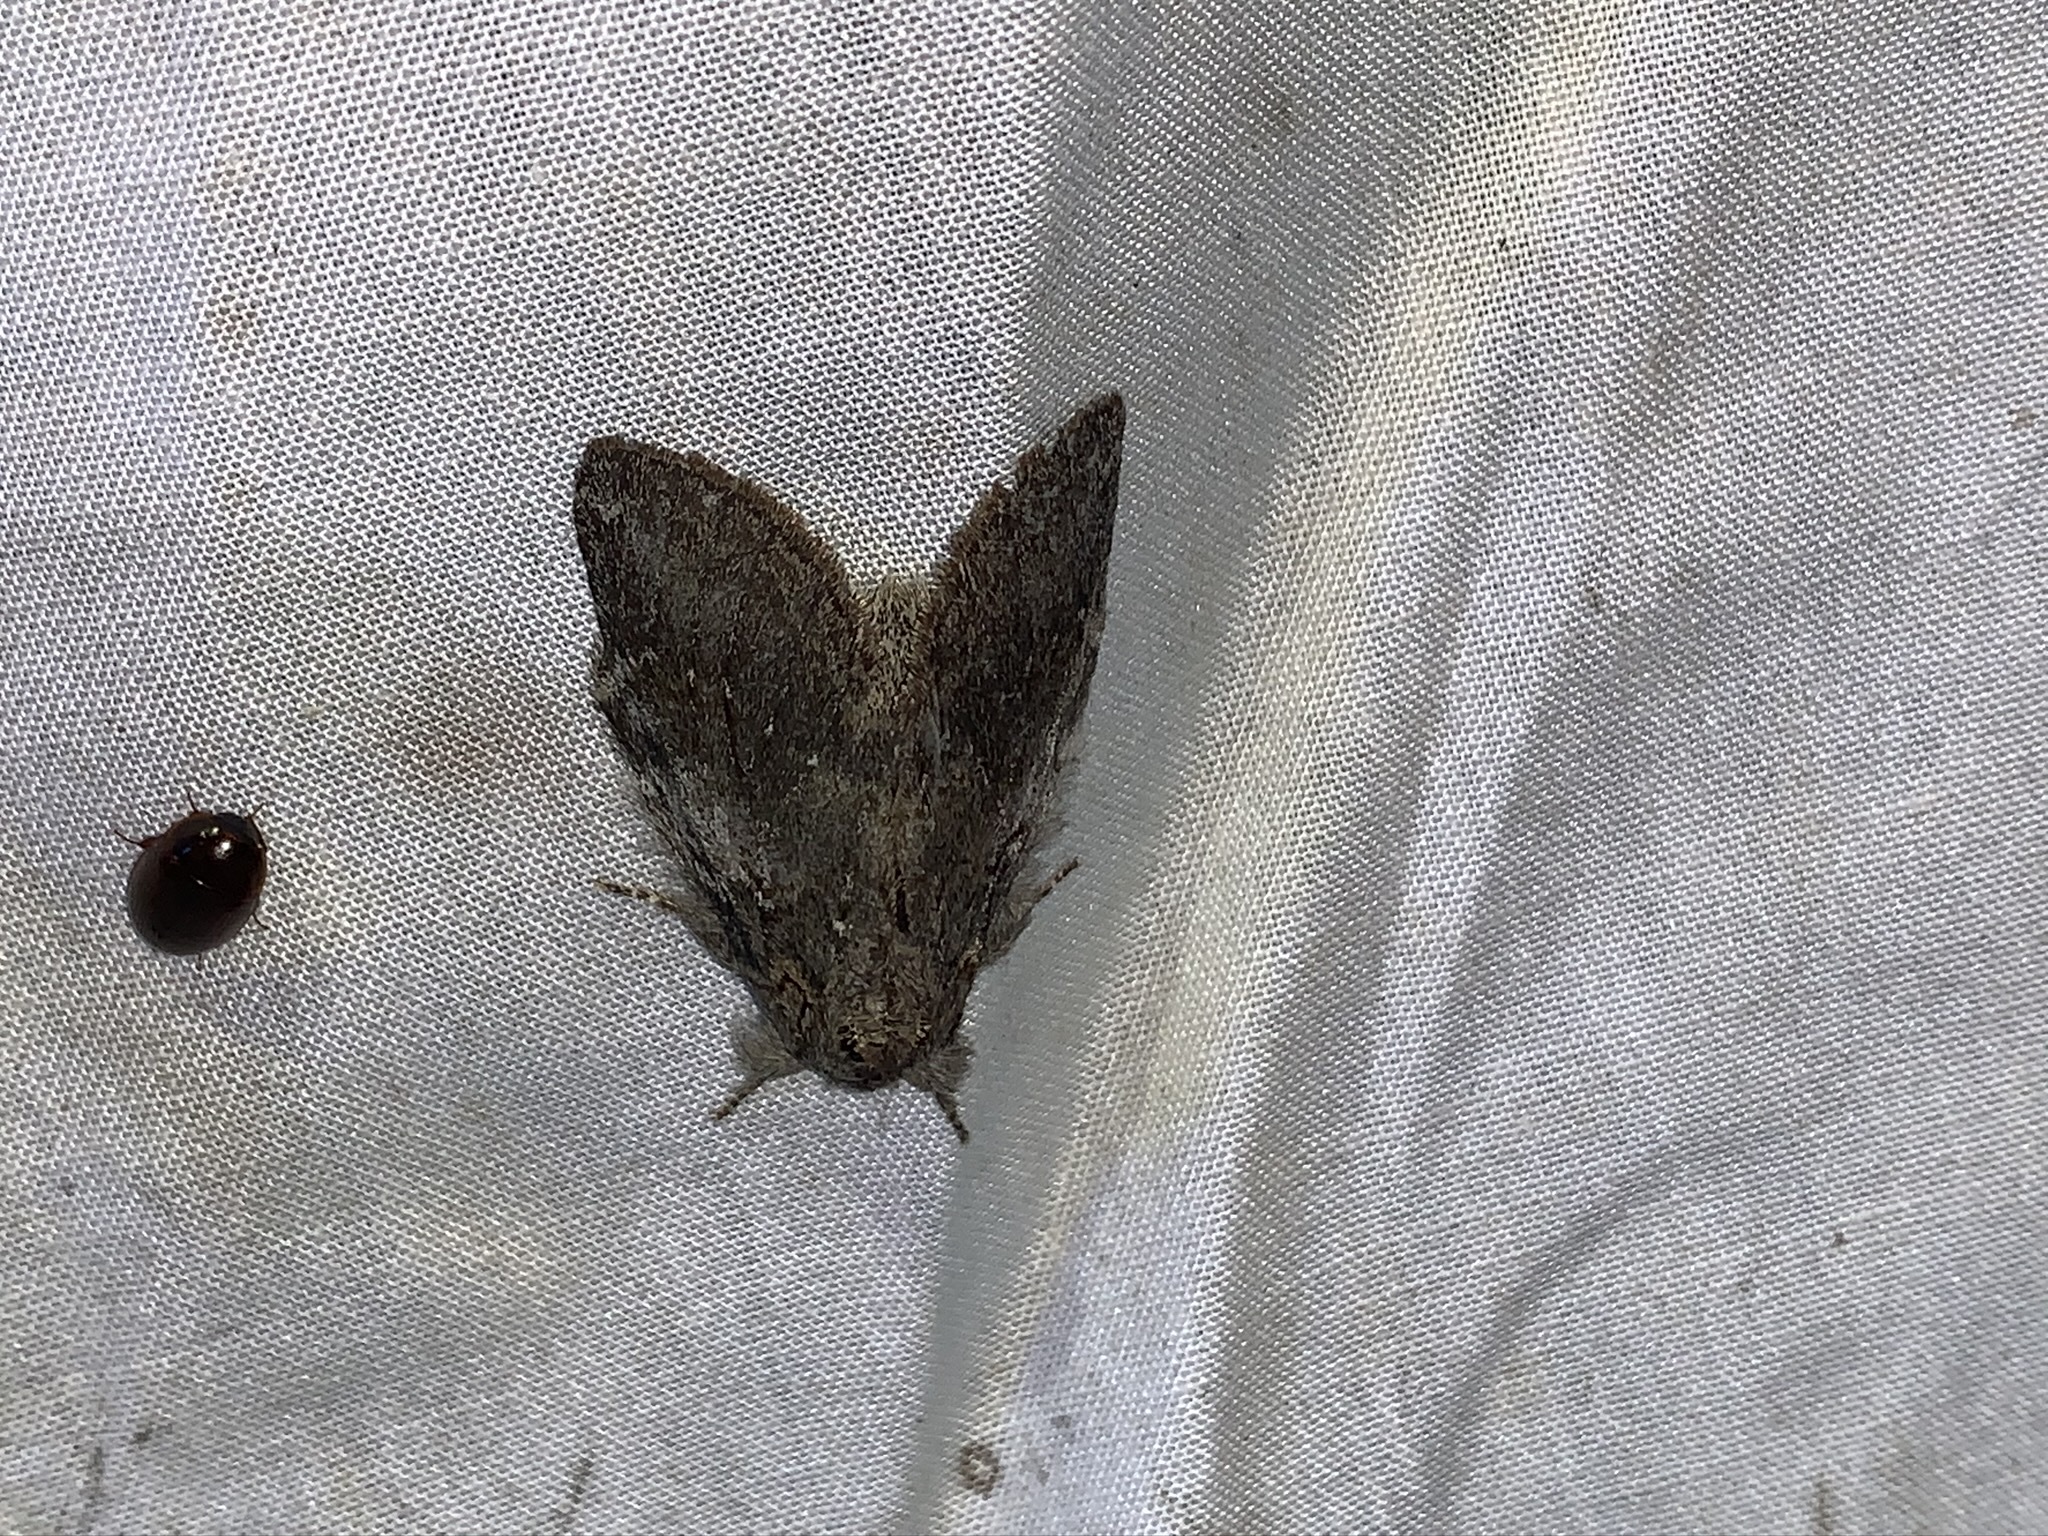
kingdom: Animalia
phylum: Arthropoda
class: Insecta
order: Lepidoptera
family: Notodontidae
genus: Peridea
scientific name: Peridea angulosa
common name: Angulose prominent
